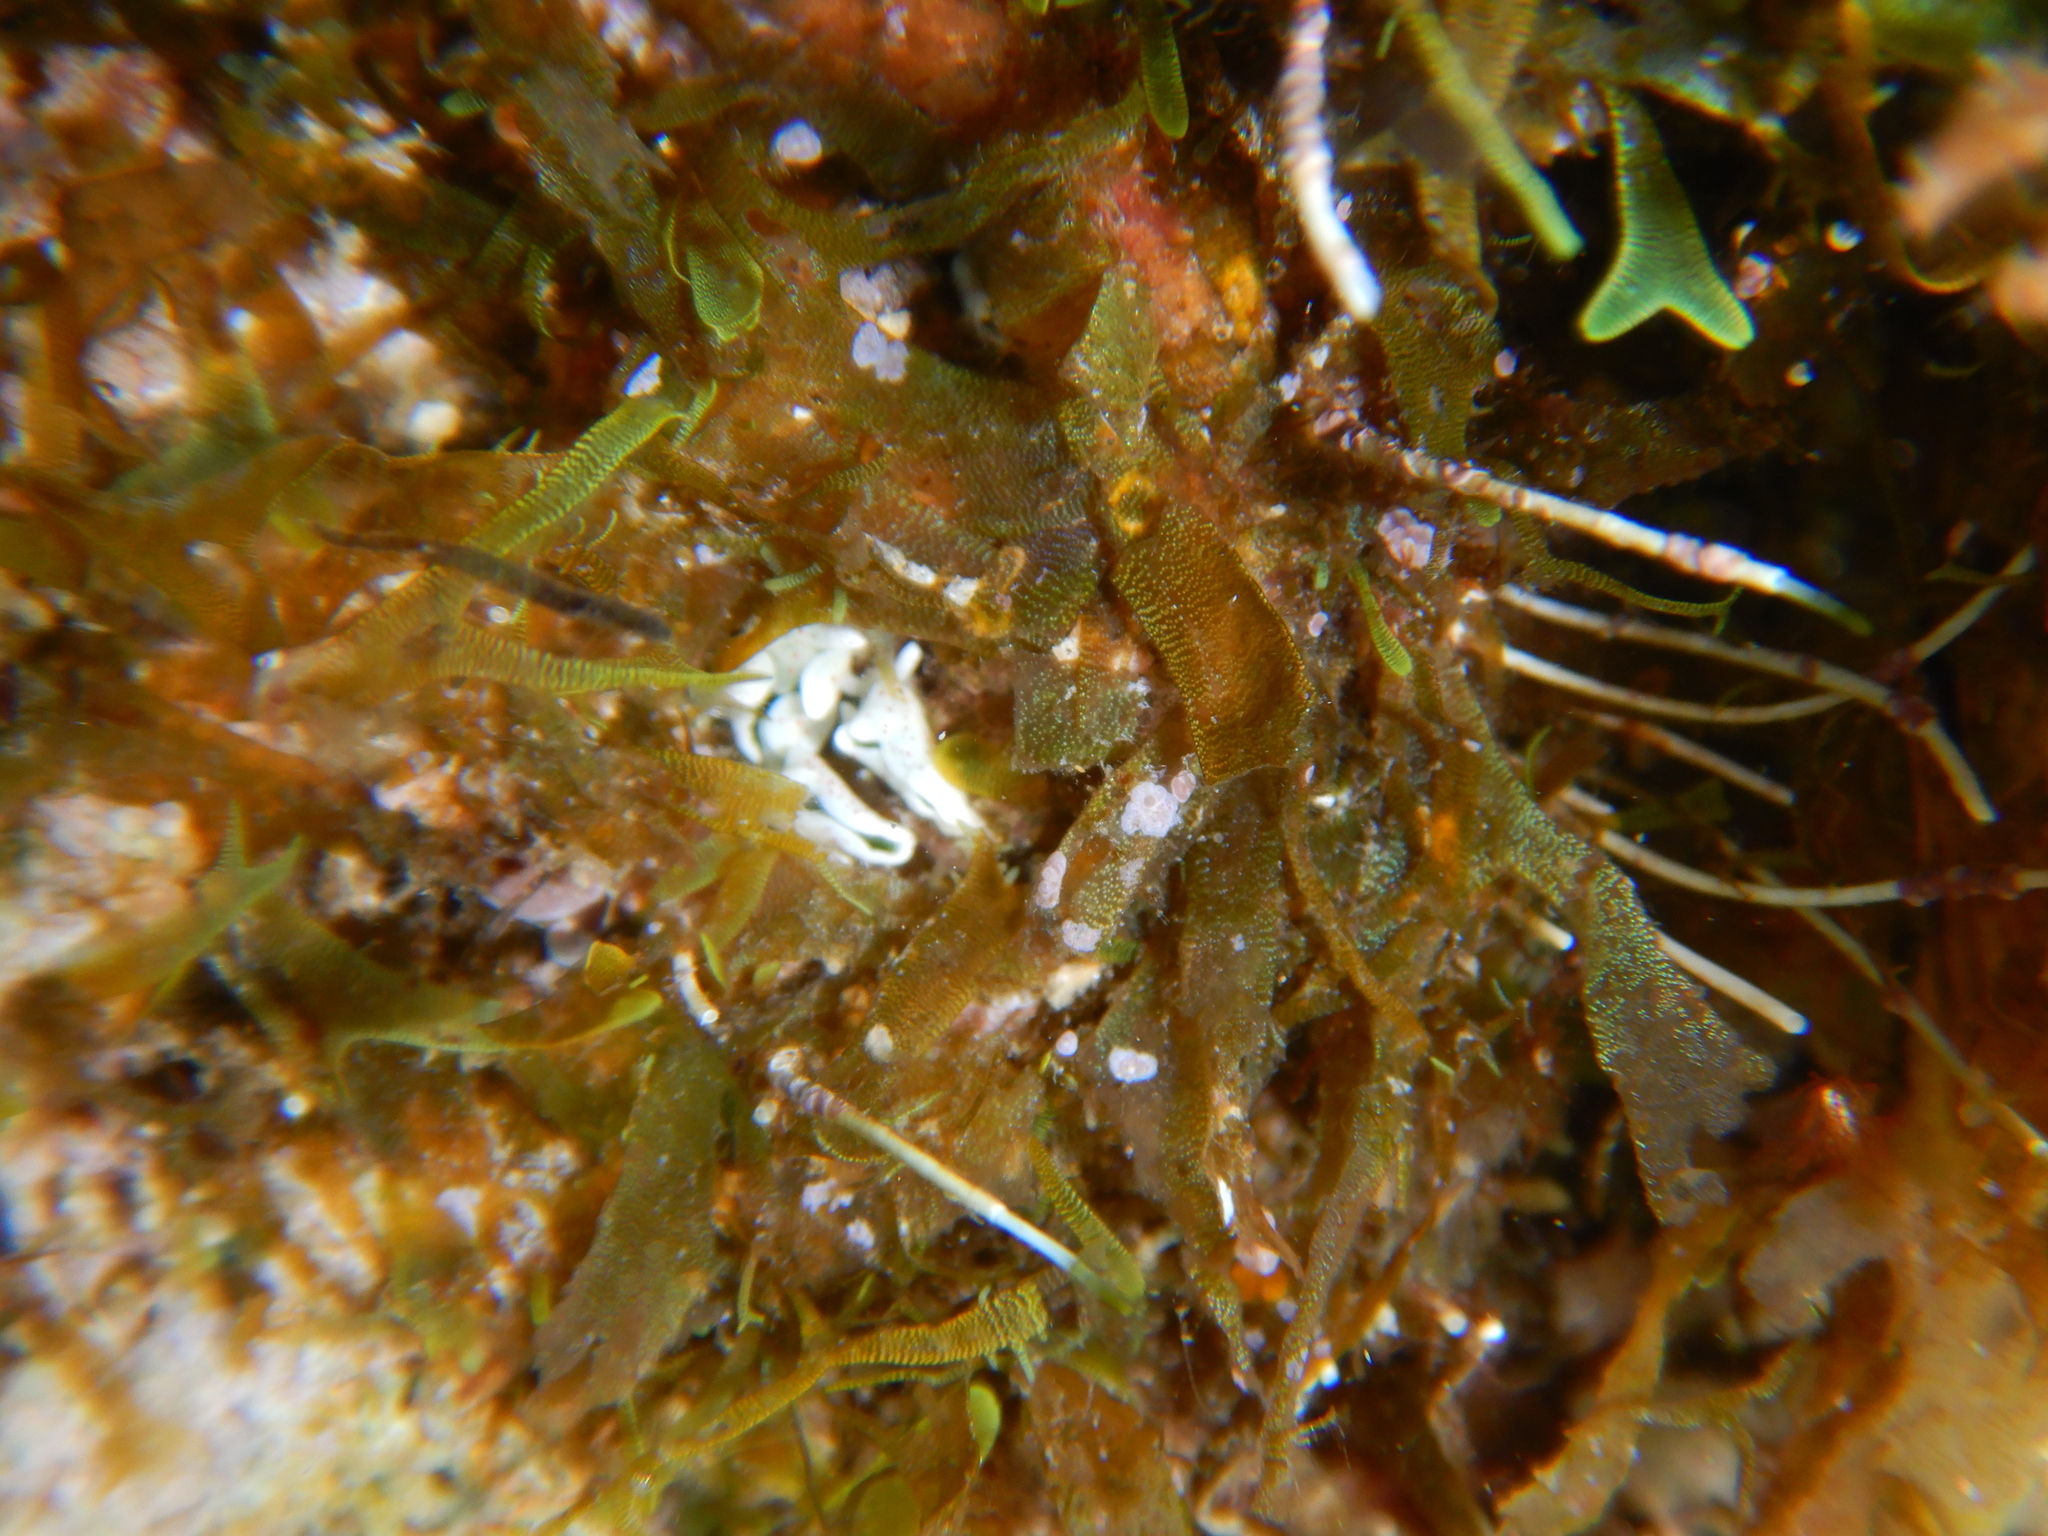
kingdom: Animalia
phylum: Mollusca
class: Gastropoda
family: Plakobranchidae
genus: Elysia
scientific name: Elysia timida
